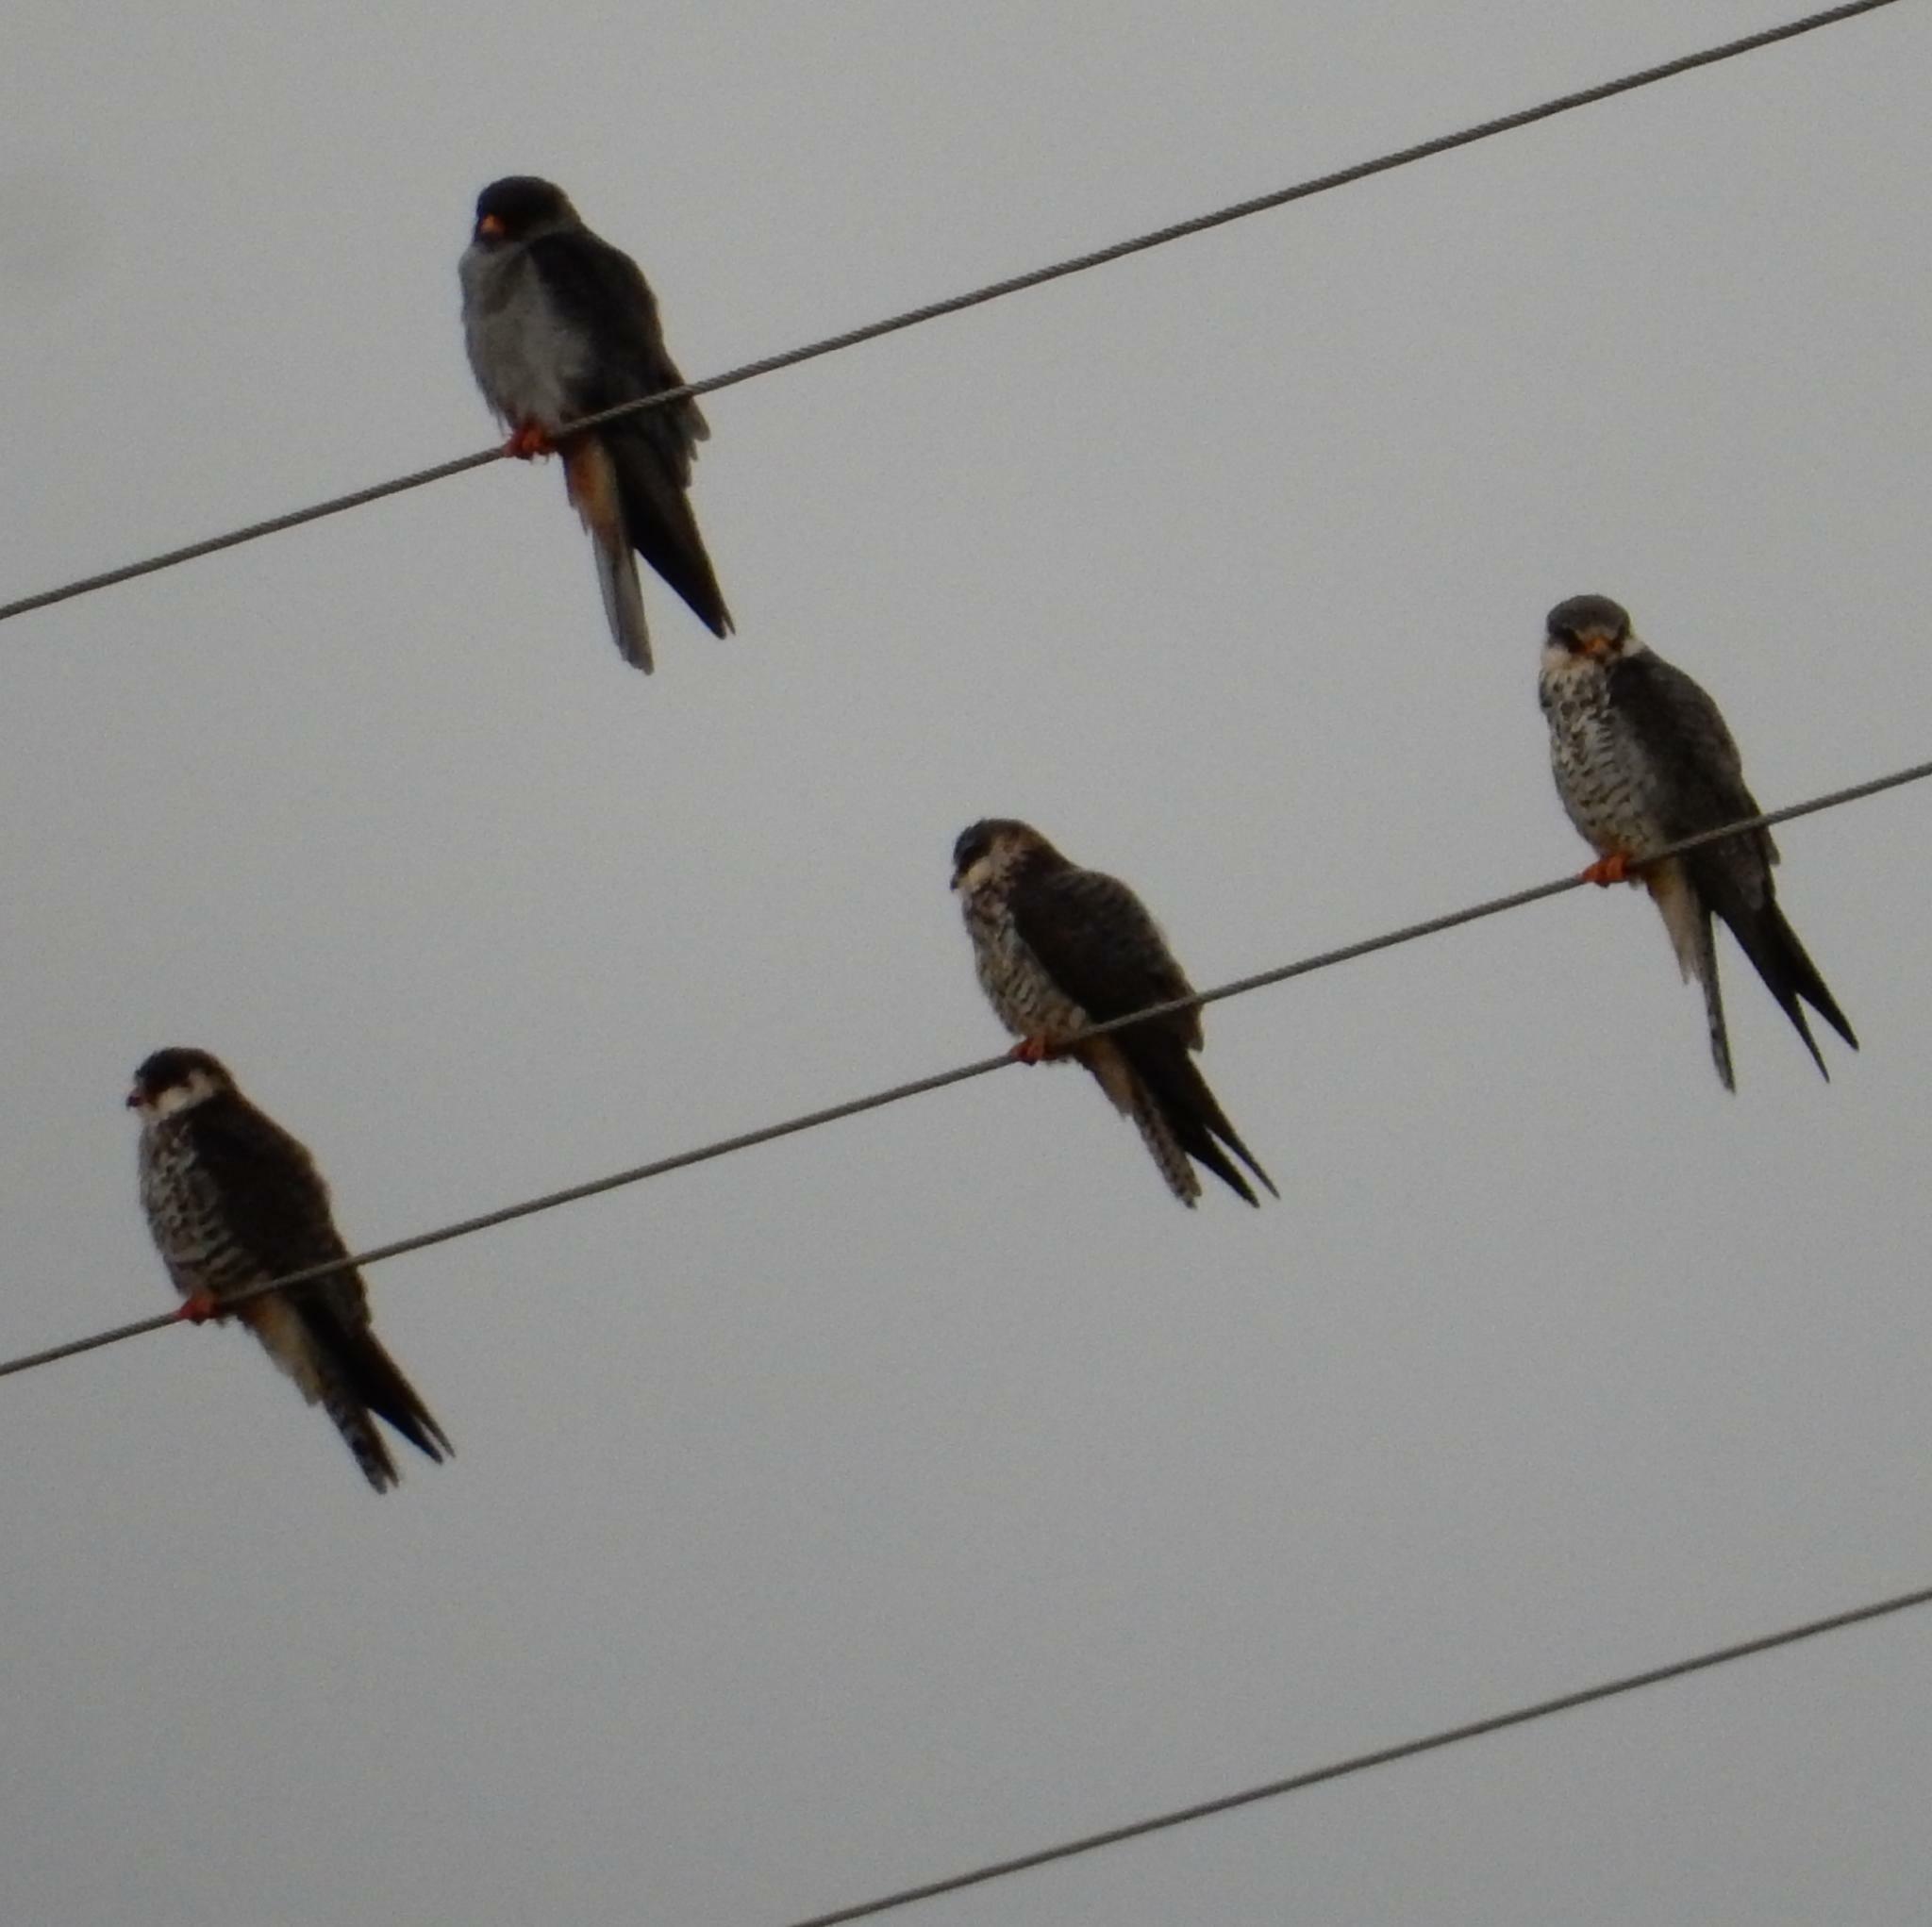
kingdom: Animalia
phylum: Chordata
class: Aves
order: Falconiformes
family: Falconidae
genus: Falco
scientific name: Falco amurensis
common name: Amur falcon
